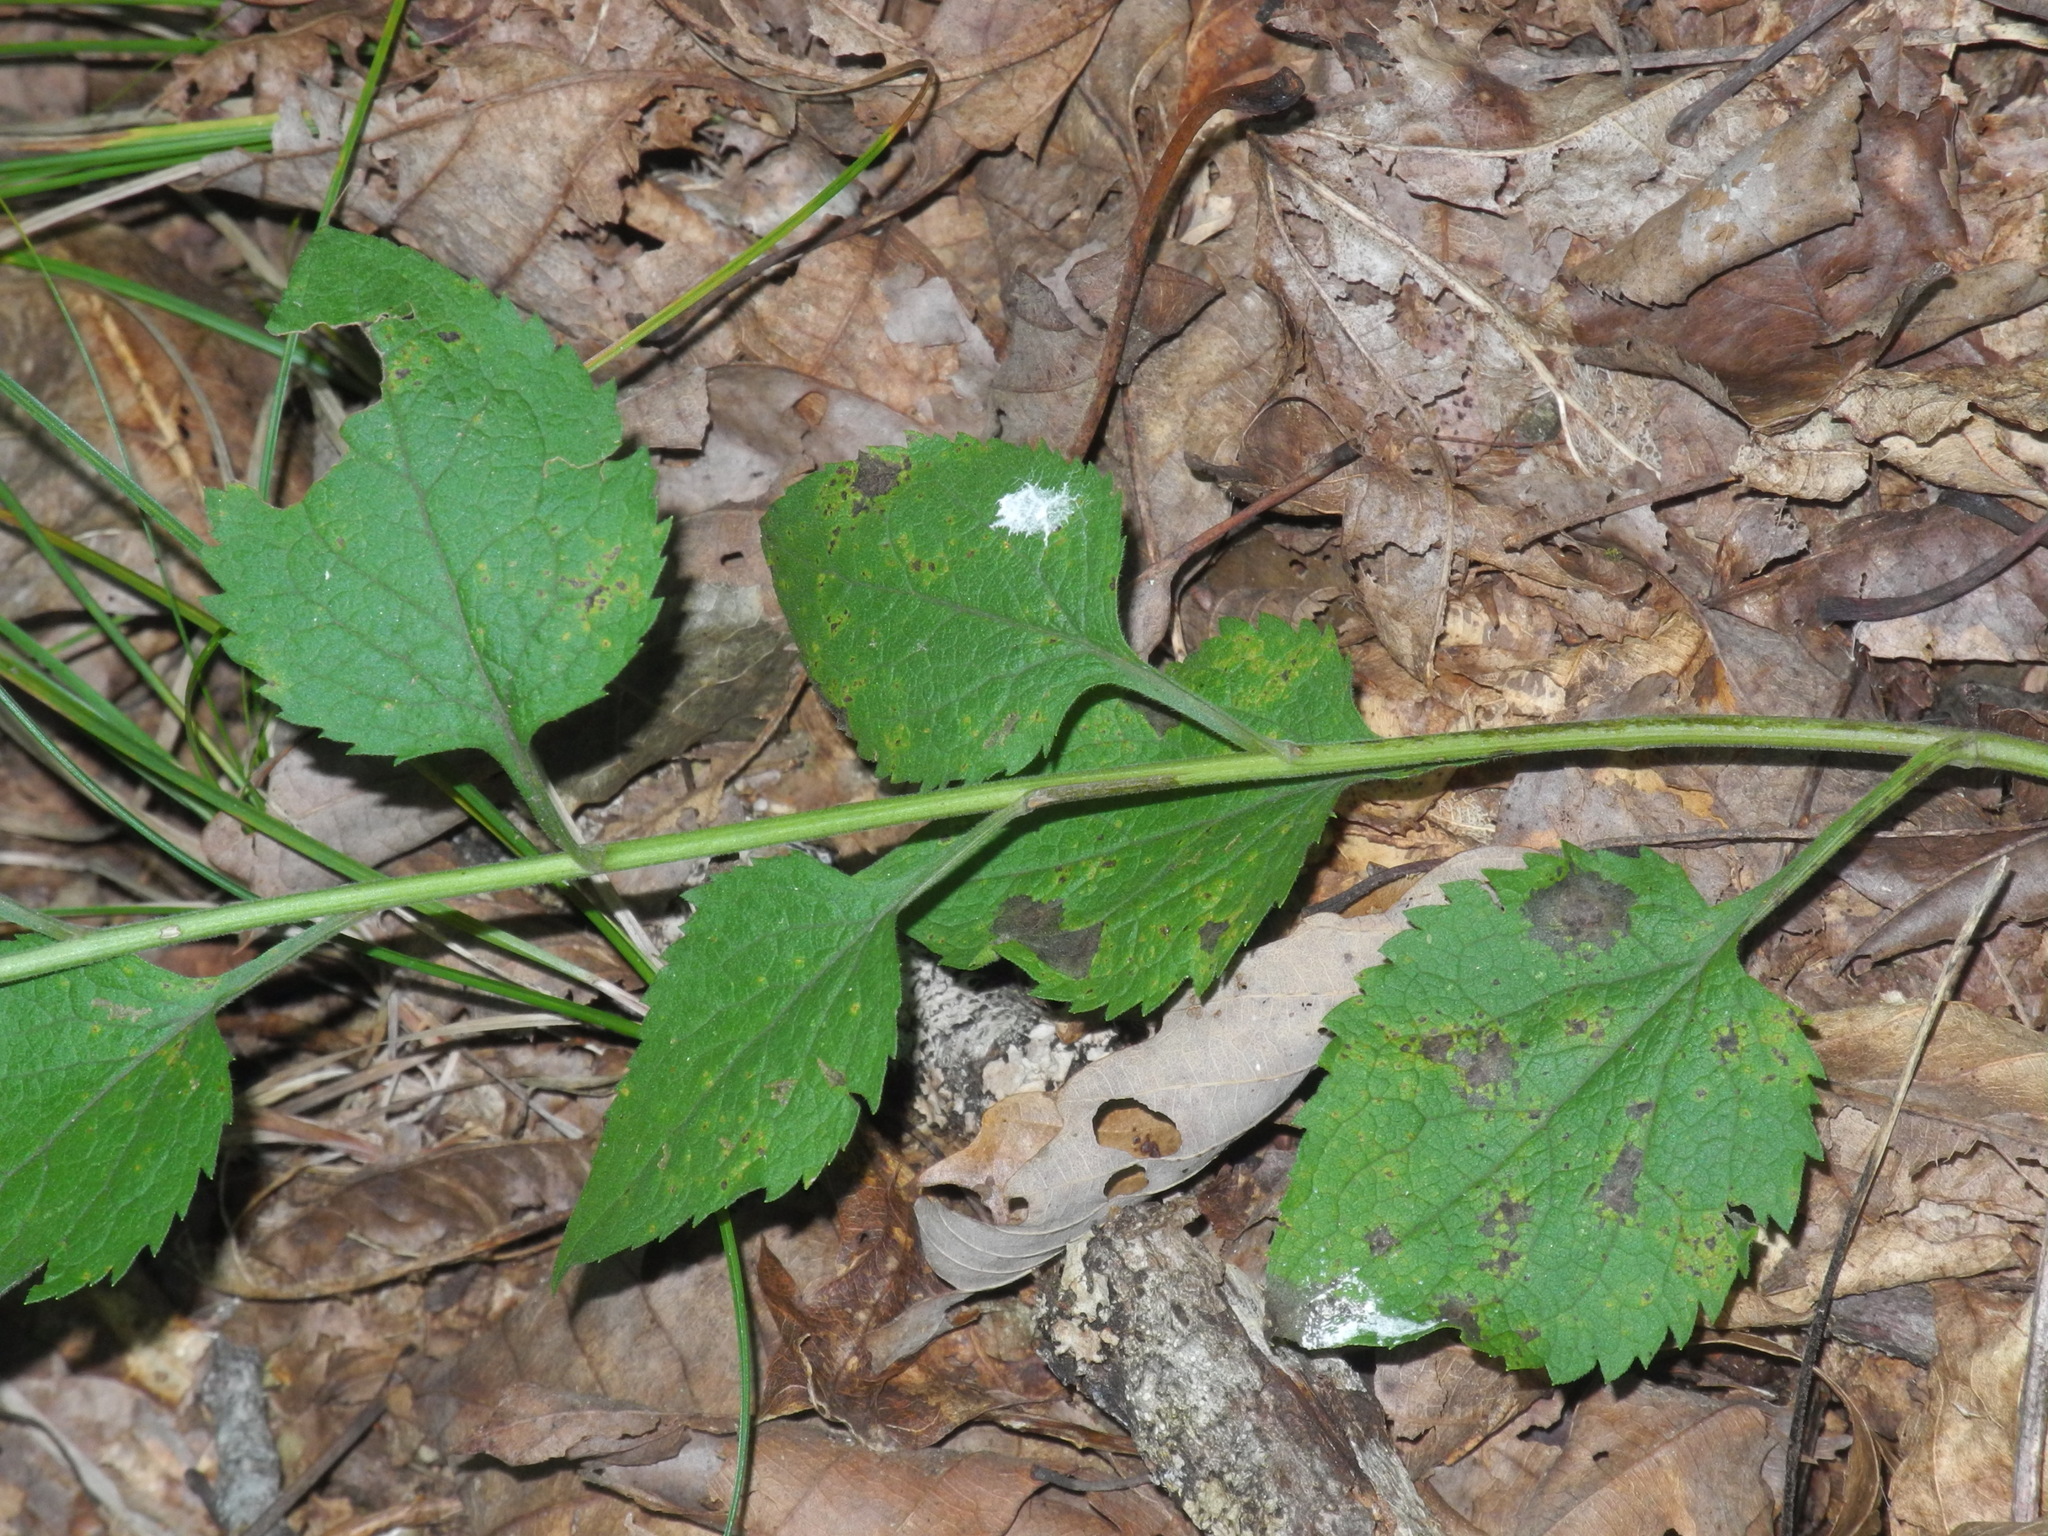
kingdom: Plantae
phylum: Tracheophyta
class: Magnoliopsida
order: Asterales
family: Asteraceae
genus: Solidago
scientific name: Solidago sphacelata
